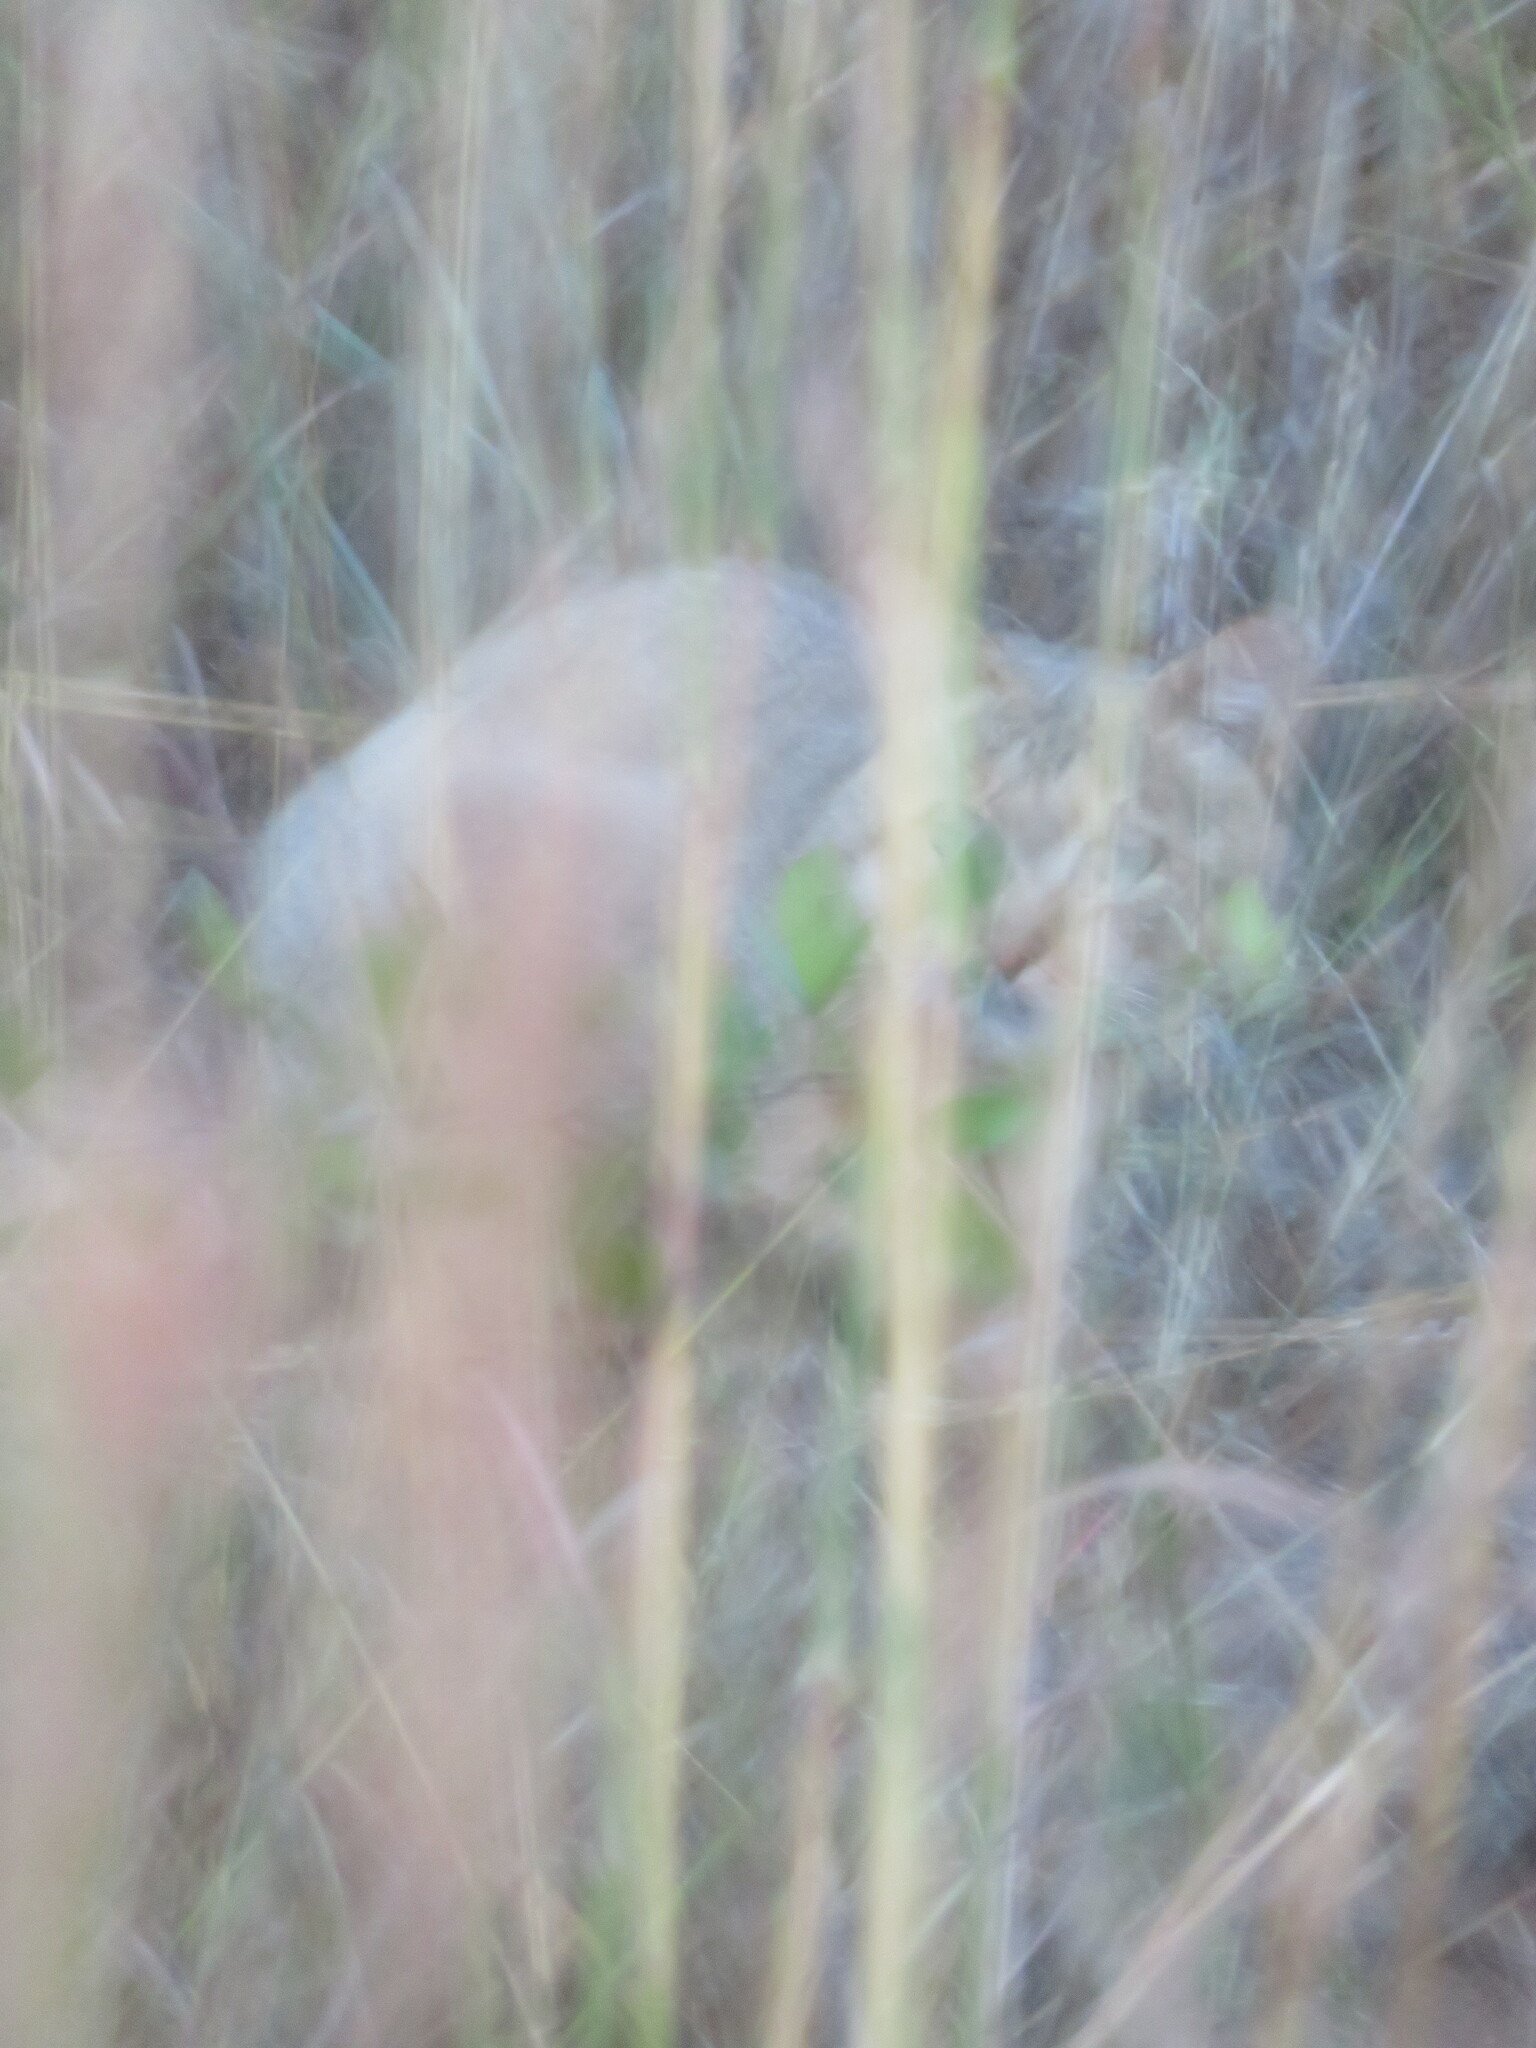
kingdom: Animalia
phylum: Chordata
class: Mammalia
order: Carnivora
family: Felidae
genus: Felis
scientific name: Felis silvestris
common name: Wildcat
